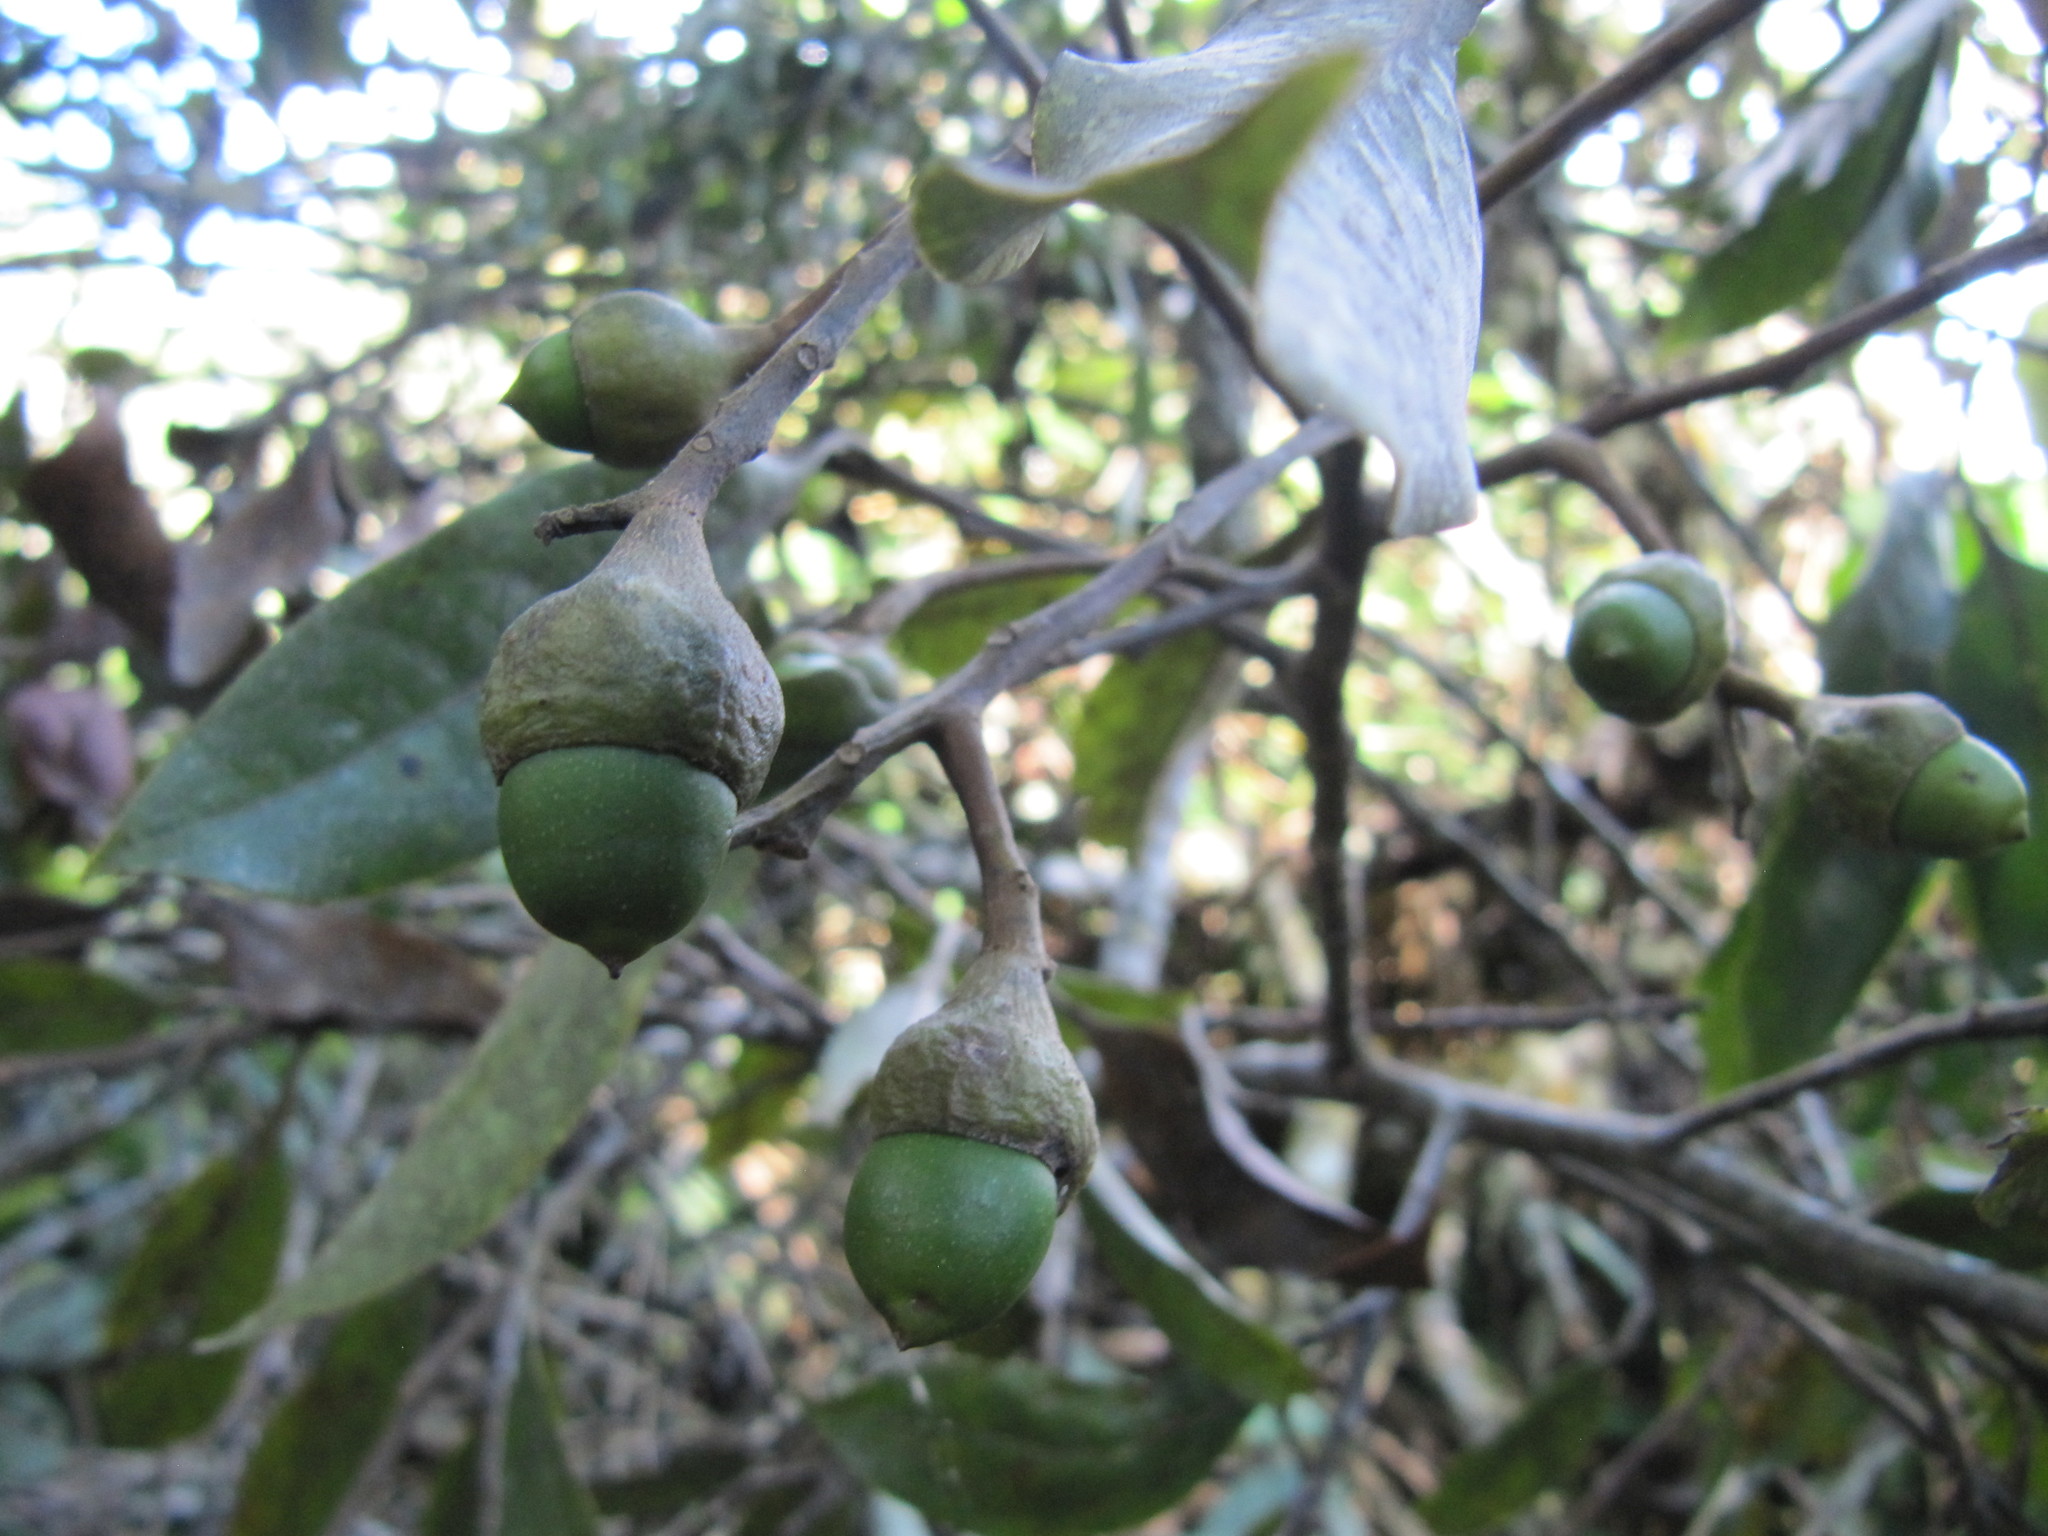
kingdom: Plantae
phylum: Tracheophyta
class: Magnoliopsida
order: Laurales
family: Lauraceae
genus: Aniba
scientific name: Aniba perutilis
